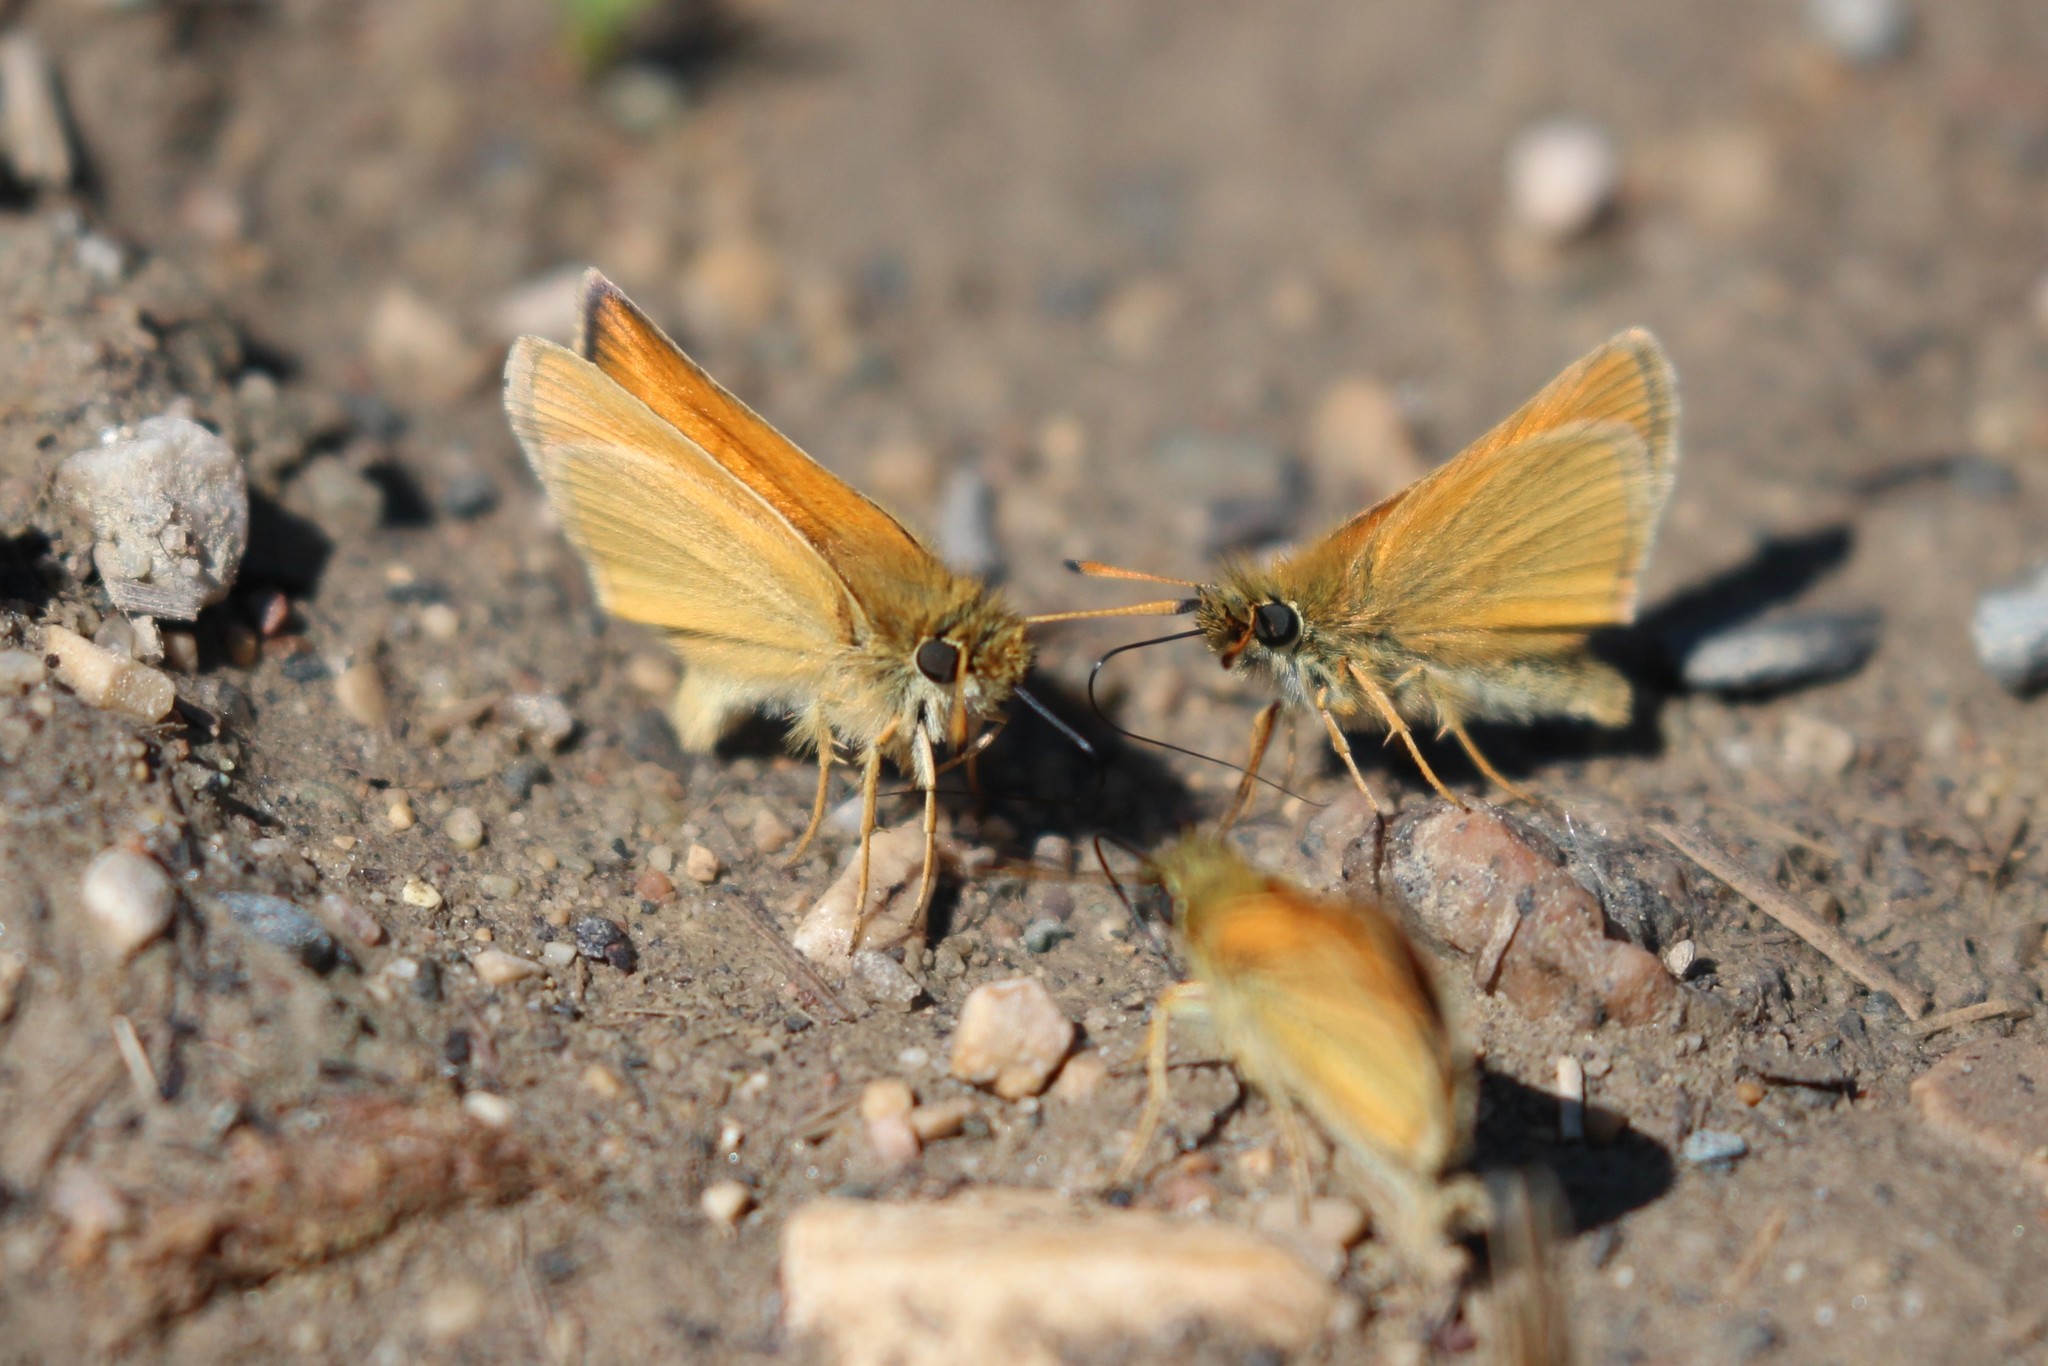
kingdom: Animalia
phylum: Arthropoda
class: Insecta
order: Lepidoptera
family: Hesperiidae
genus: Thymelicus
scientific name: Thymelicus lineola
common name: Essex skipper
